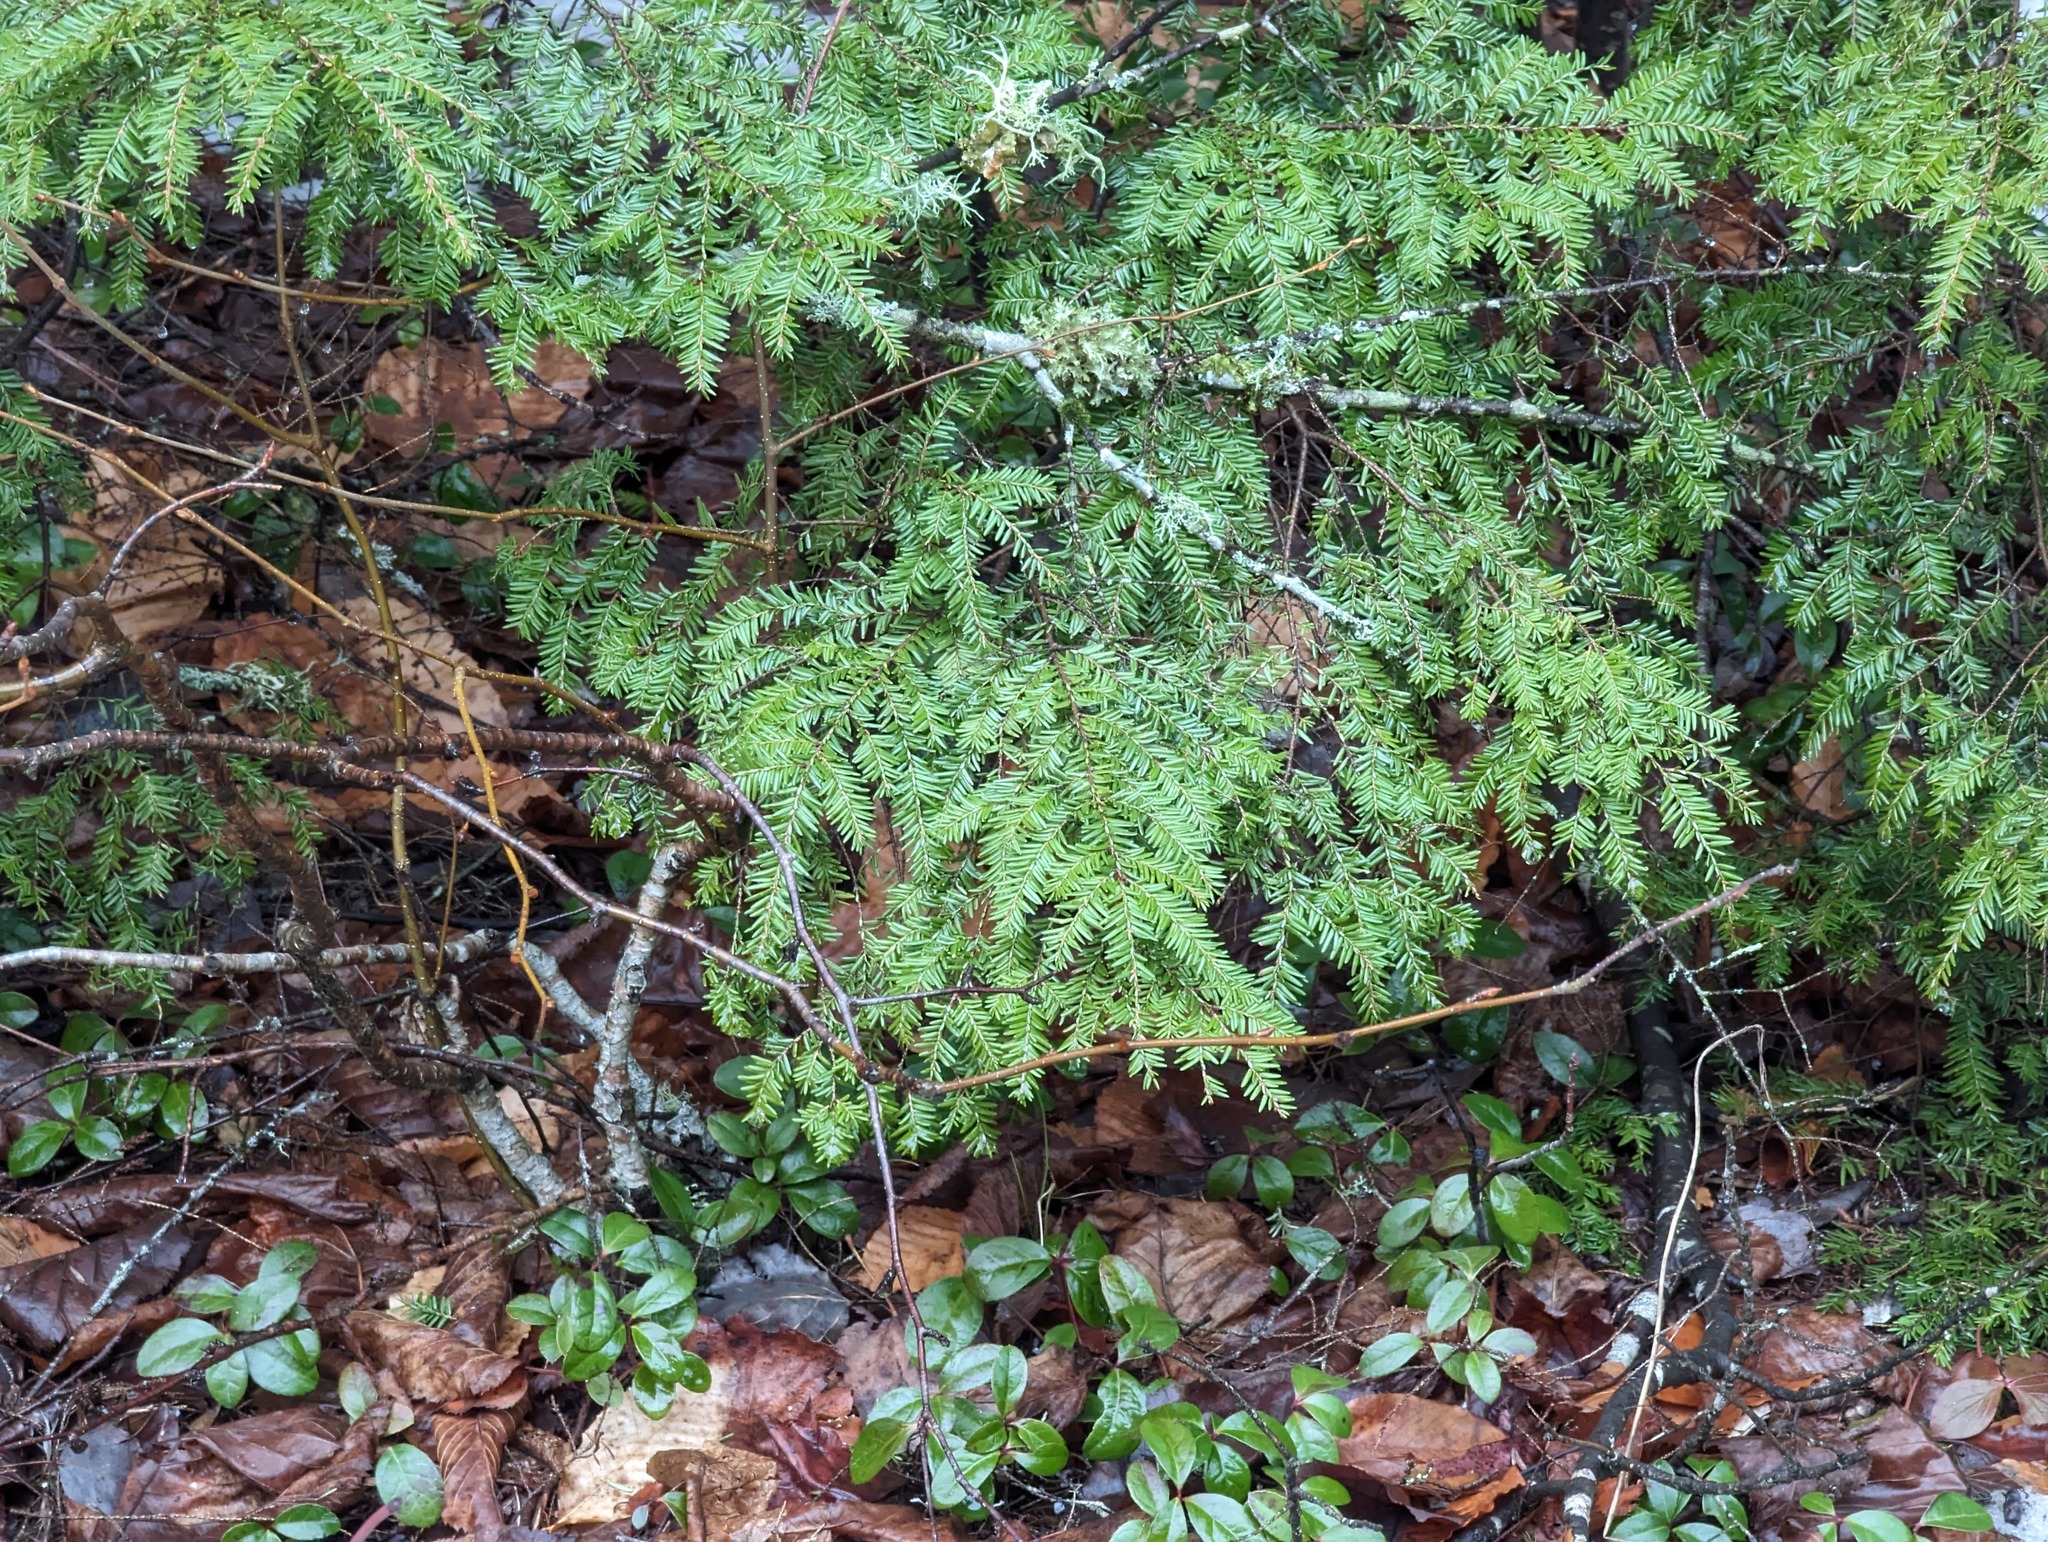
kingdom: Plantae
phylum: Tracheophyta
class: Pinopsida
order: Pinales
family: Pinaceae
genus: Tsuga
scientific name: Tsuga canadensis
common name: Eastern hemlock
